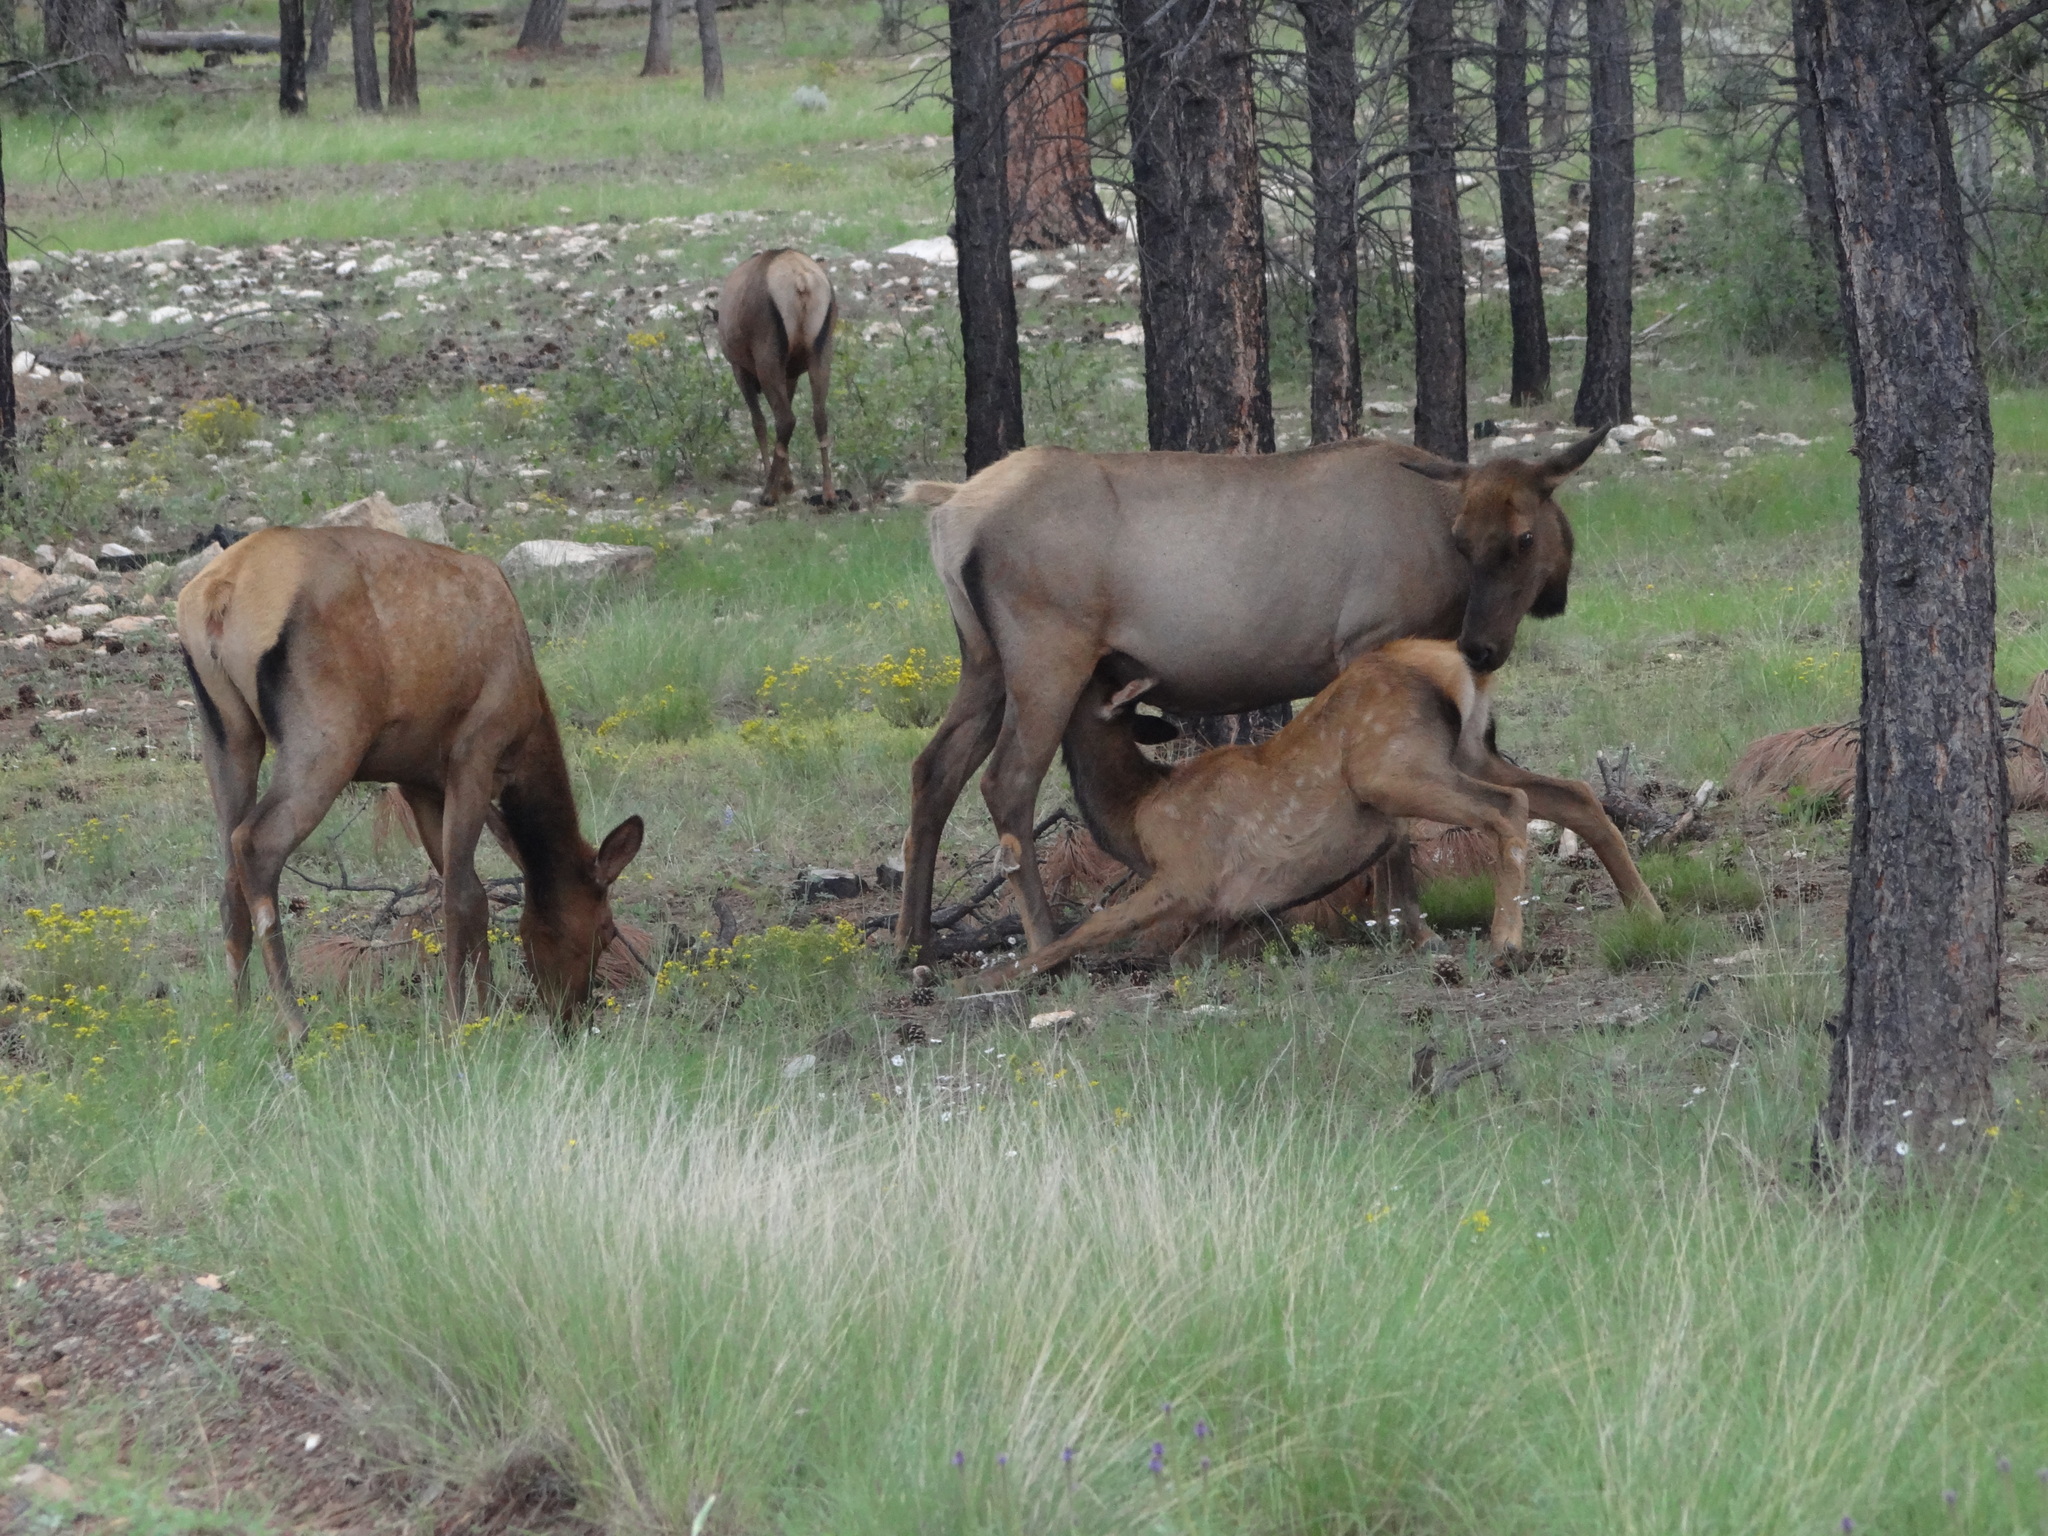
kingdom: Animalia
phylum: Chordata
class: Mammalia
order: Artiodactyla
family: Cervidae
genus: Cervus
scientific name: Cervus elaphus
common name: Red deer
